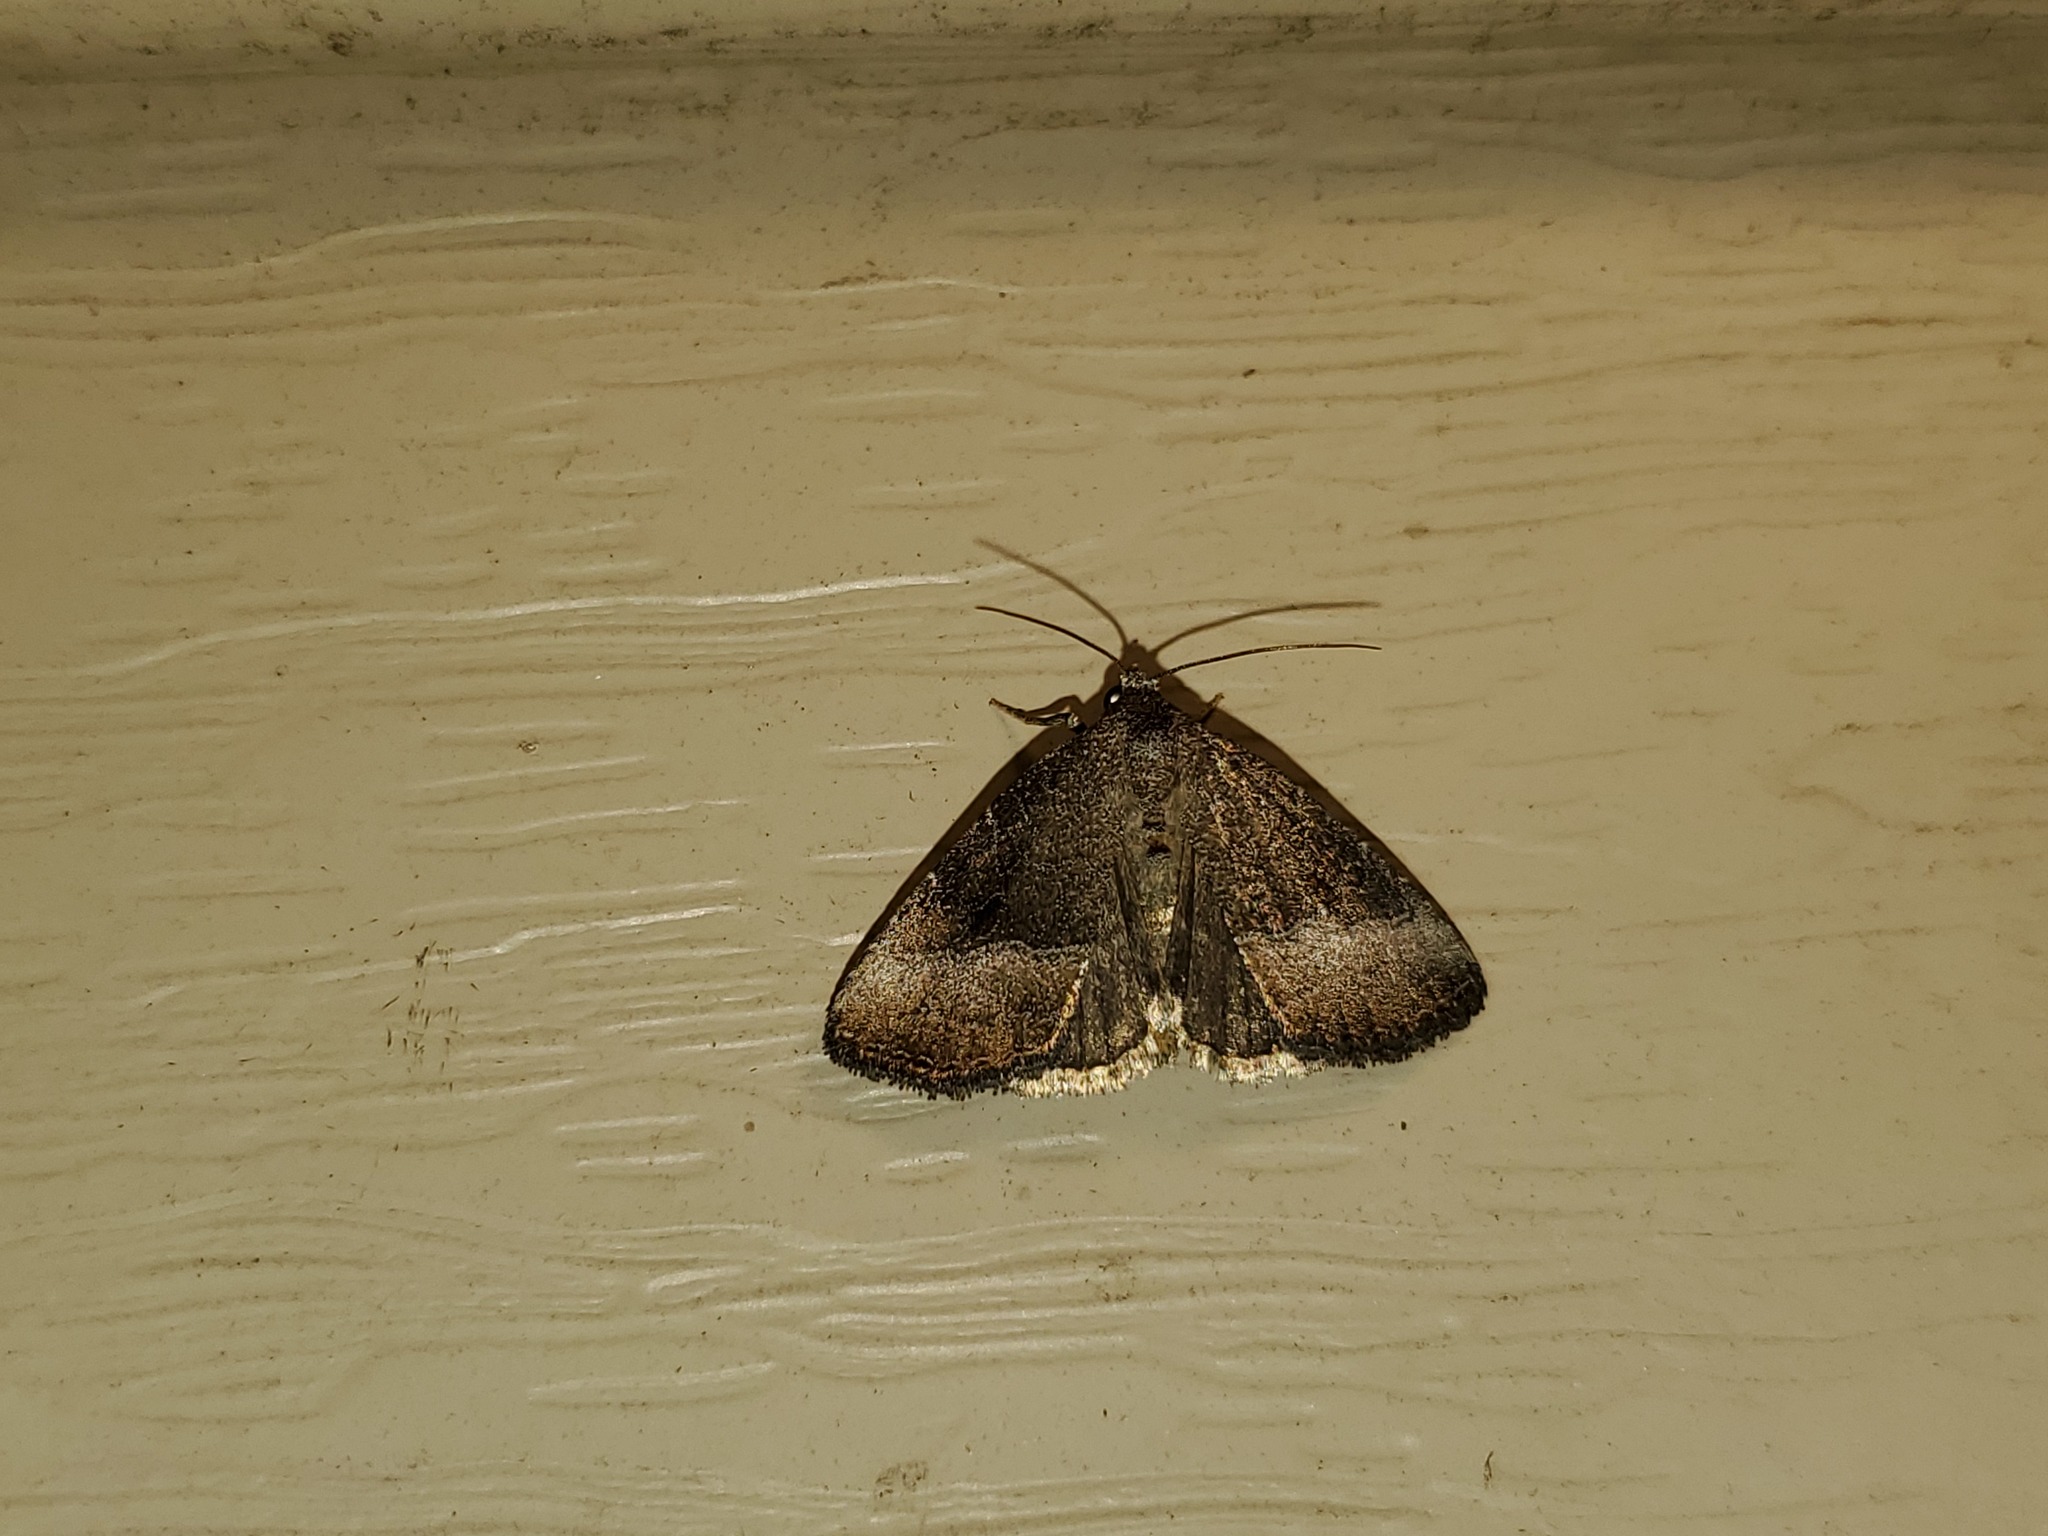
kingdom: Animalia
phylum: Arthropoda
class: Insecta
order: Lepidoptera
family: Noctuidae
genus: Ogdoconta
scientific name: Ogdoconta cinereola
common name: Common pinkband
